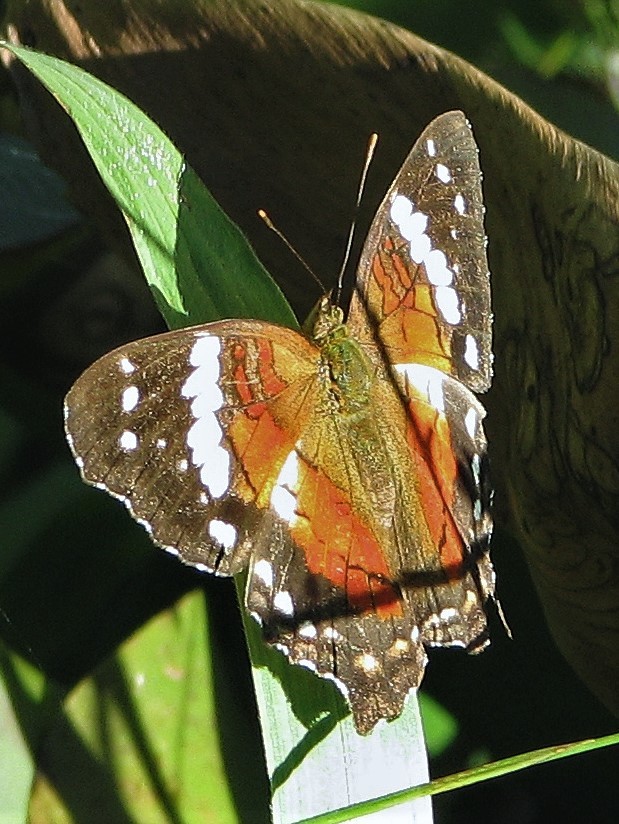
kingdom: Animalia
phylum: Arthropoda
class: Insecta
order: Lepidoptera
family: Nymphalidae
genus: Anartia
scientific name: Anartia amathea
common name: Red peacock
